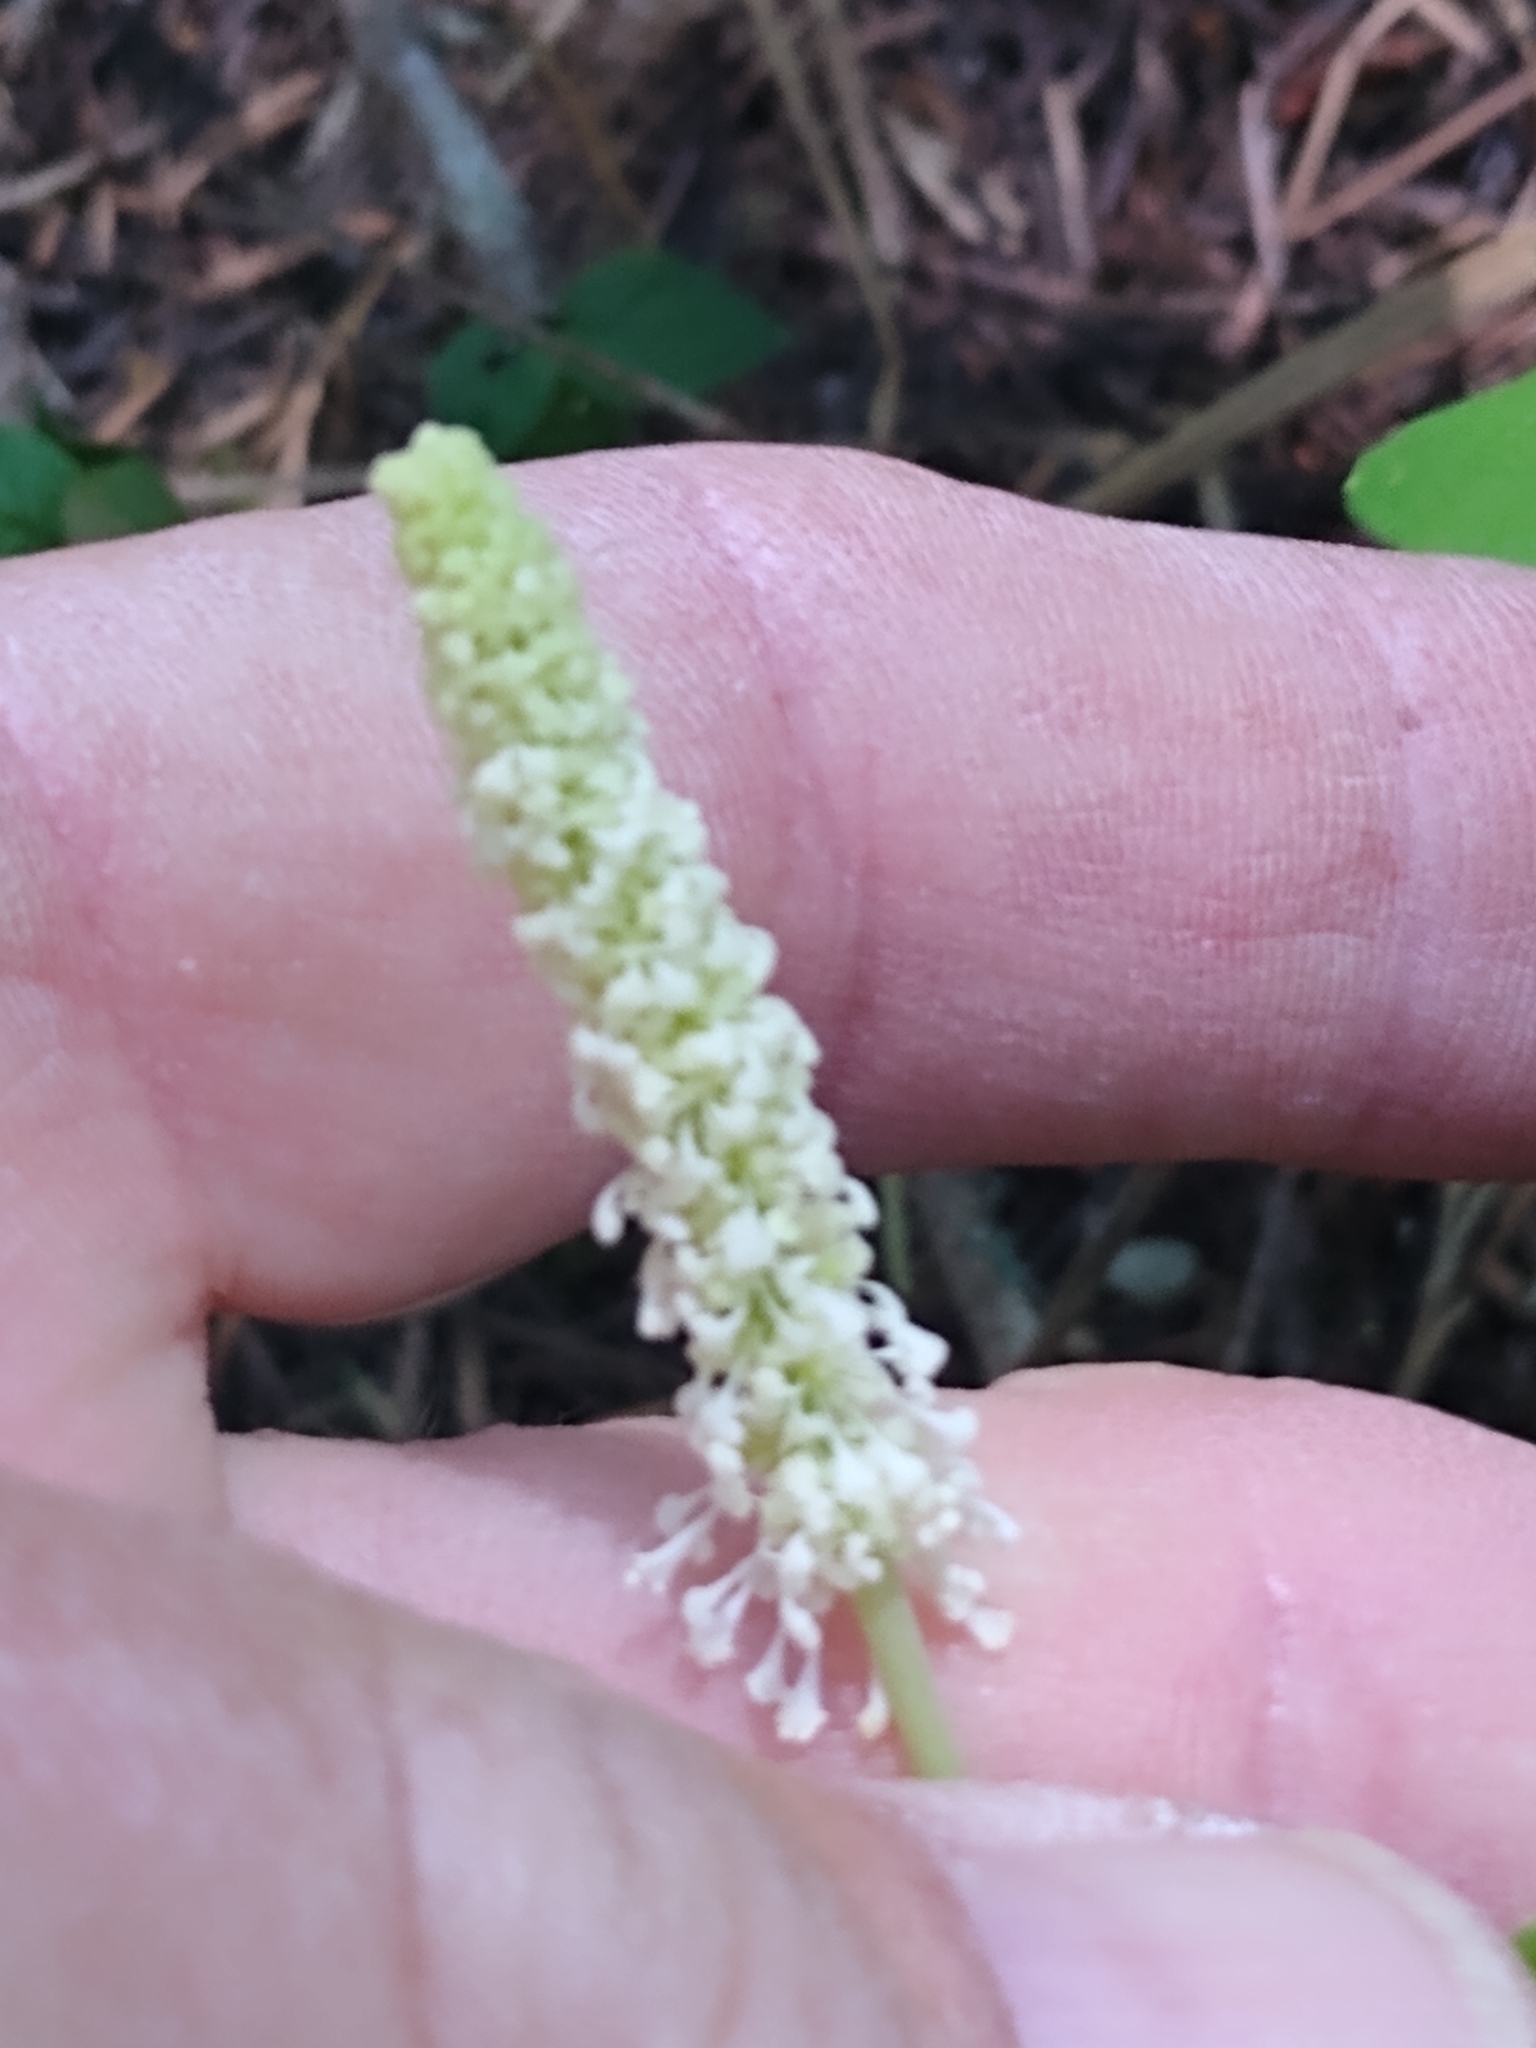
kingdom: Plantae
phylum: Tracheophyta
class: Magnoliopsida
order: Ranunculales
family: Berberidaceae
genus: Achlys
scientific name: Achlys triphylla
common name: Vanilla-leaf
